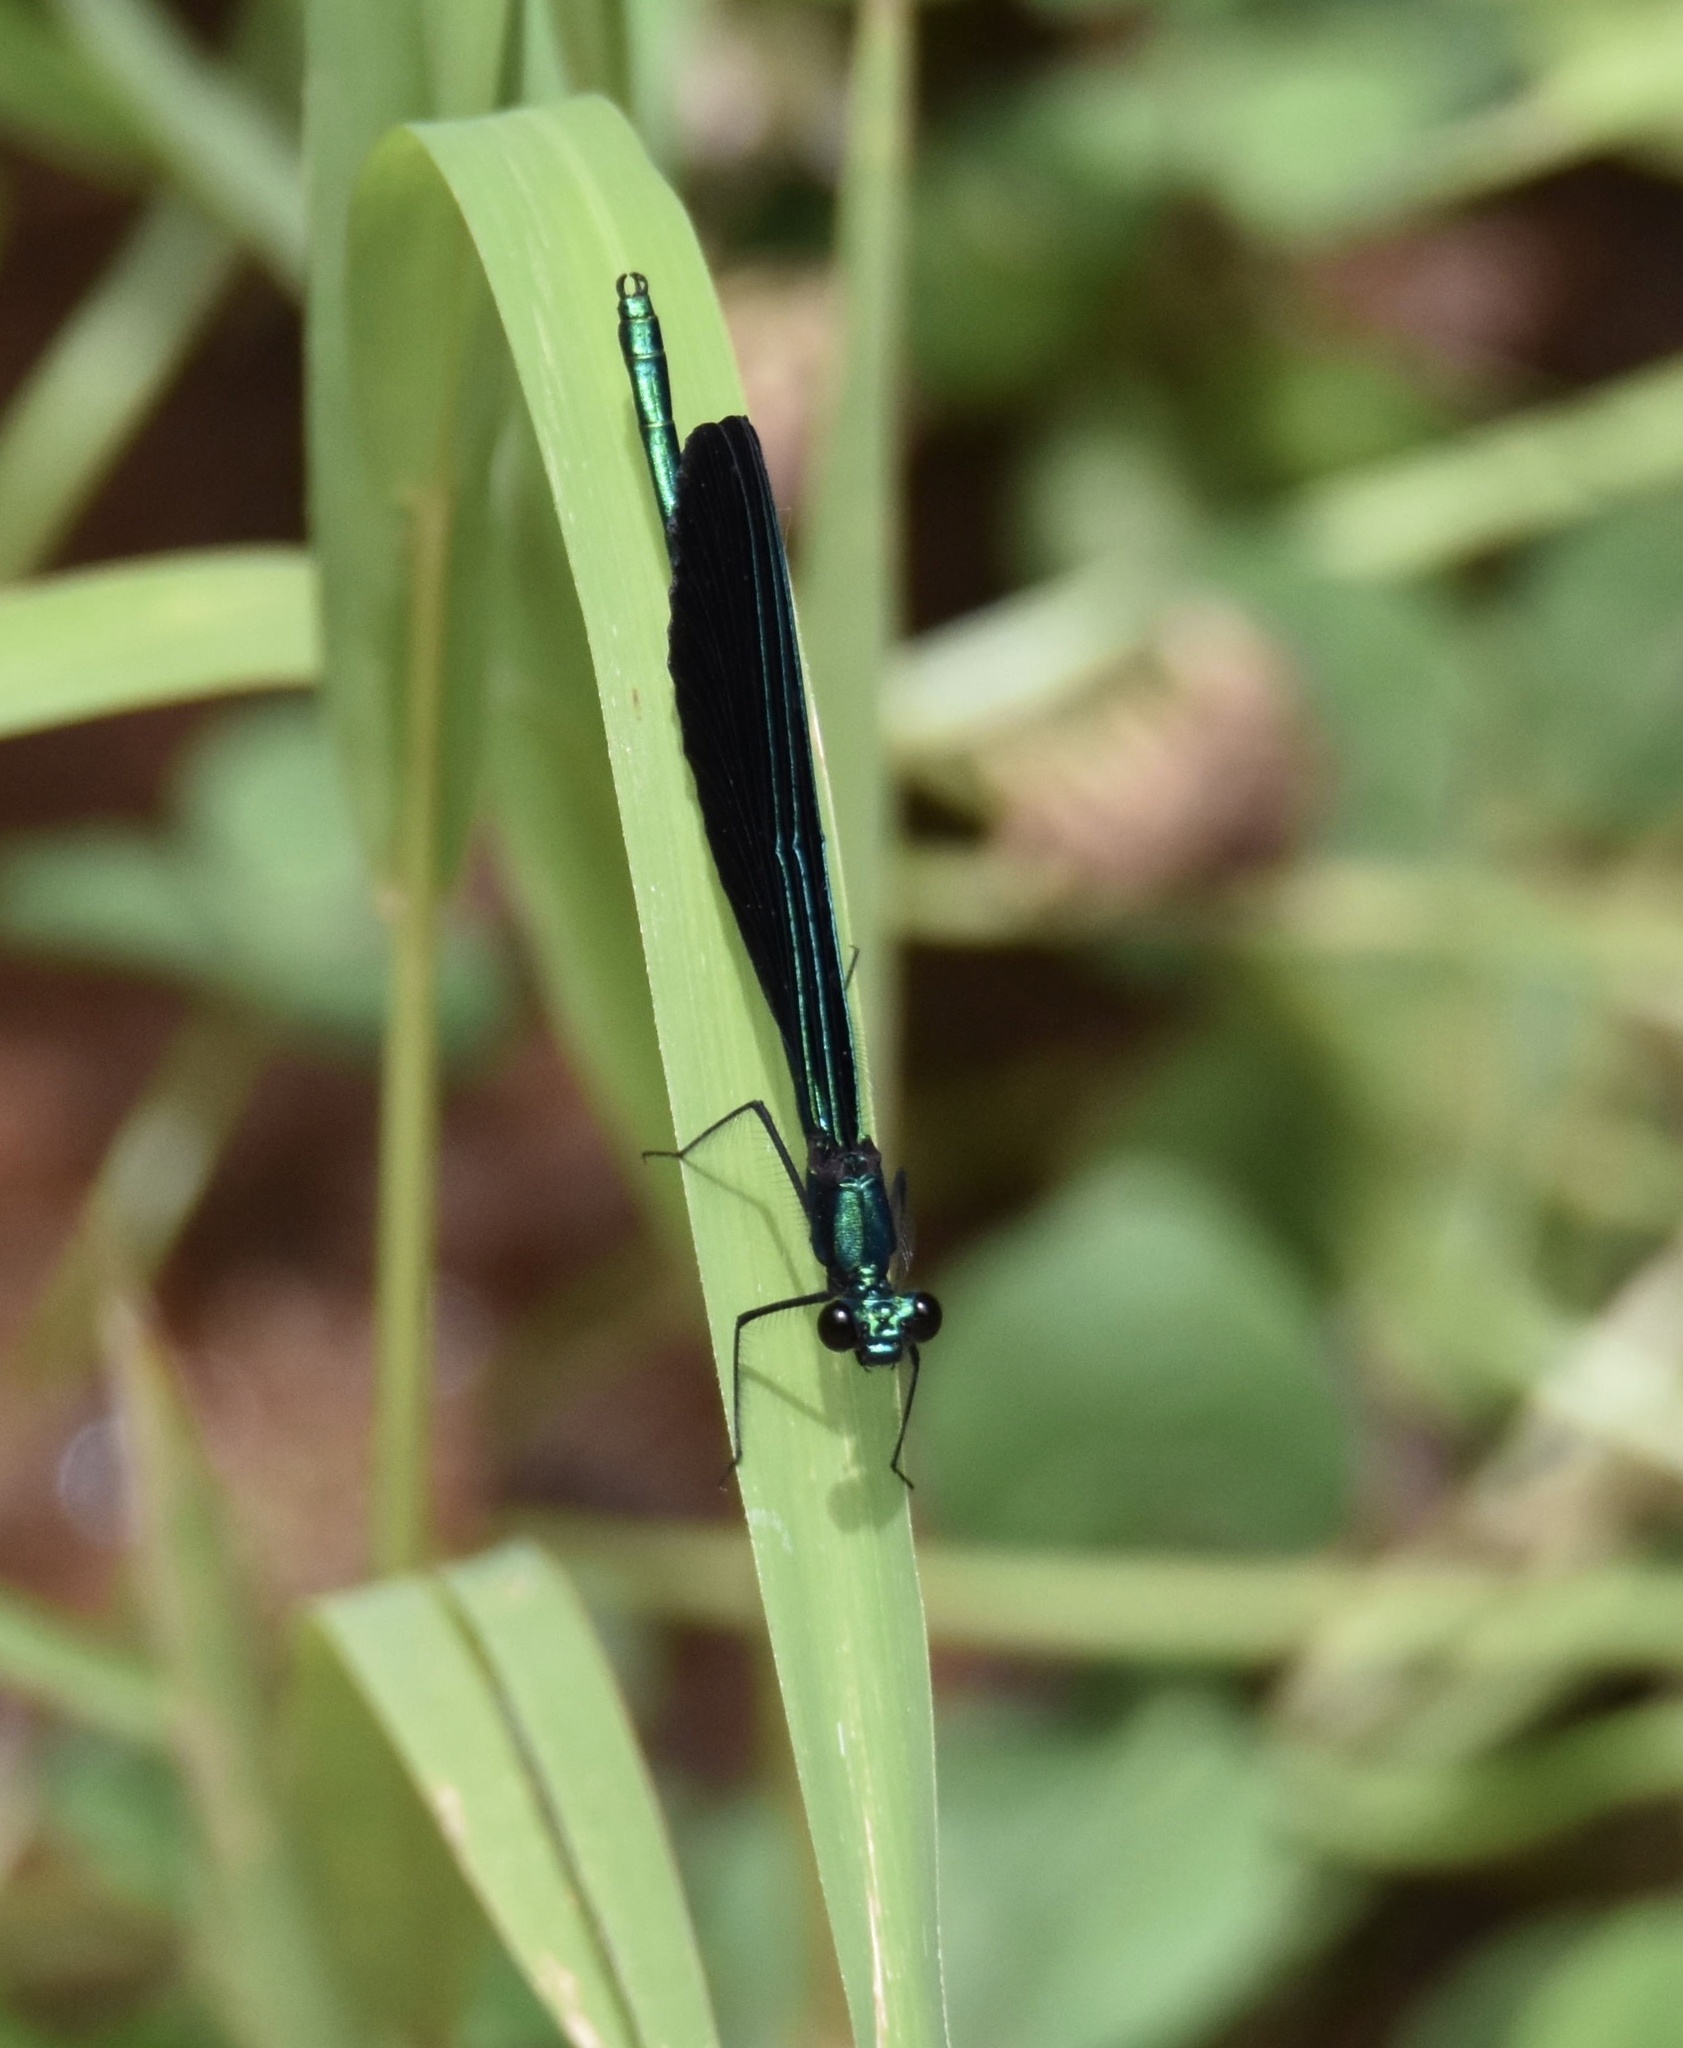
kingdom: Animalia
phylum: Arthropoda
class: Insecta
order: Odonata
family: Calopterygidae
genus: Calopteryx
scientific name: Calopteryx maculata
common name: Ebony jewelwing
